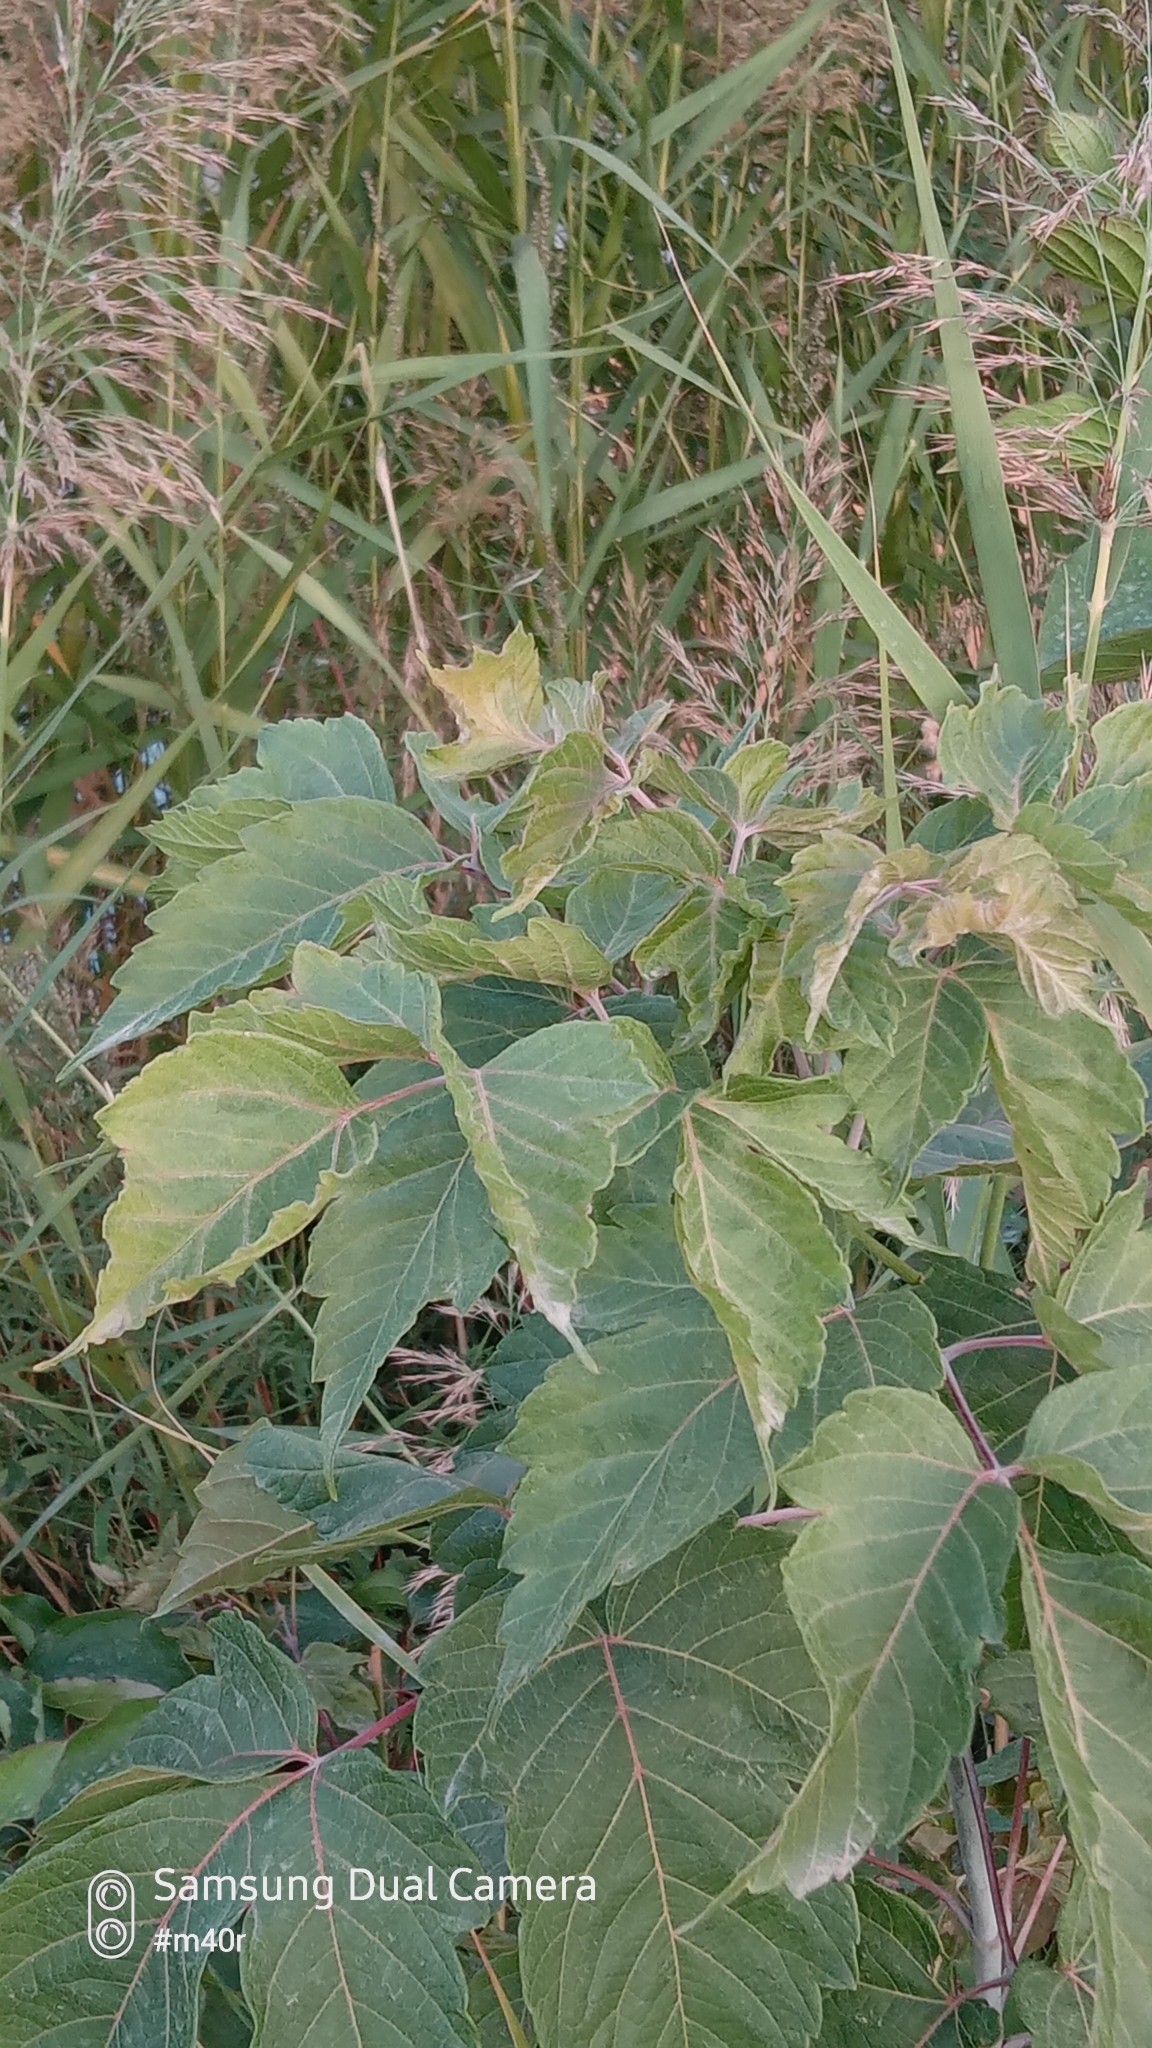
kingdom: Plantae
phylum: Tracheophyta
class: Magnoliopsida
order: Sapindales
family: Sapindaceae
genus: Acer
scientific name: Acer negundo
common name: Ashleaf maple
